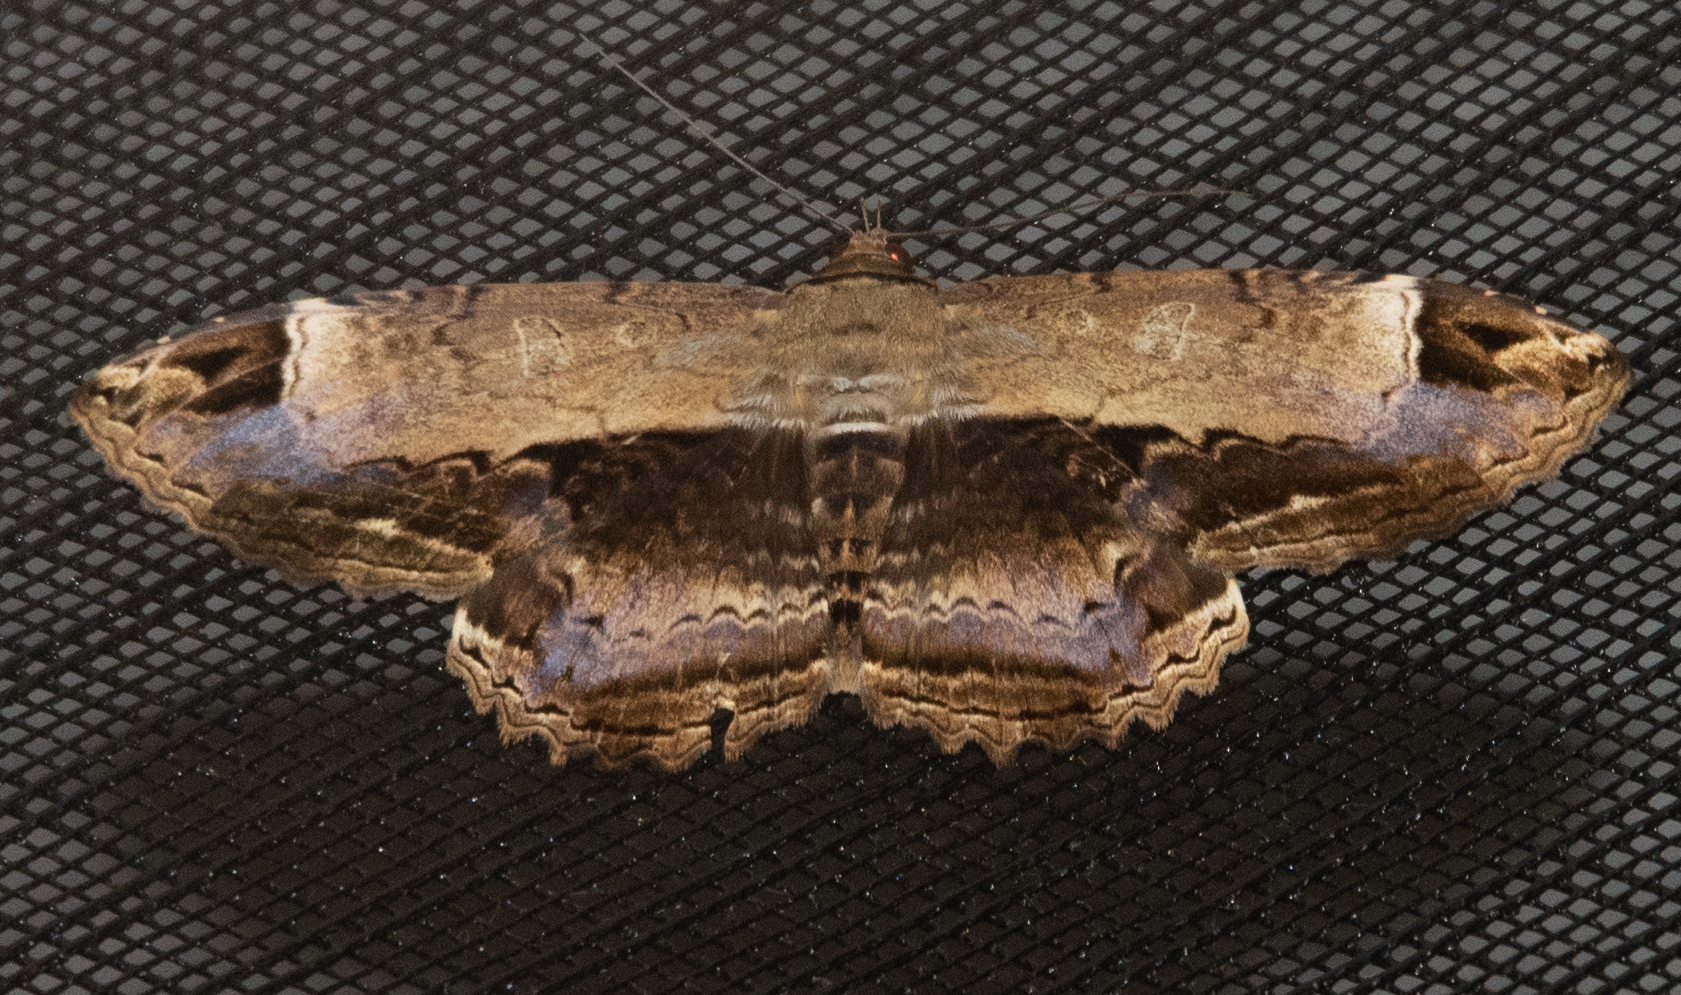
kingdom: Animalia
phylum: Arthropoda
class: Insecta
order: Lepidoptera
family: Noctuidae
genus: Ronania
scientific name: Ronania
